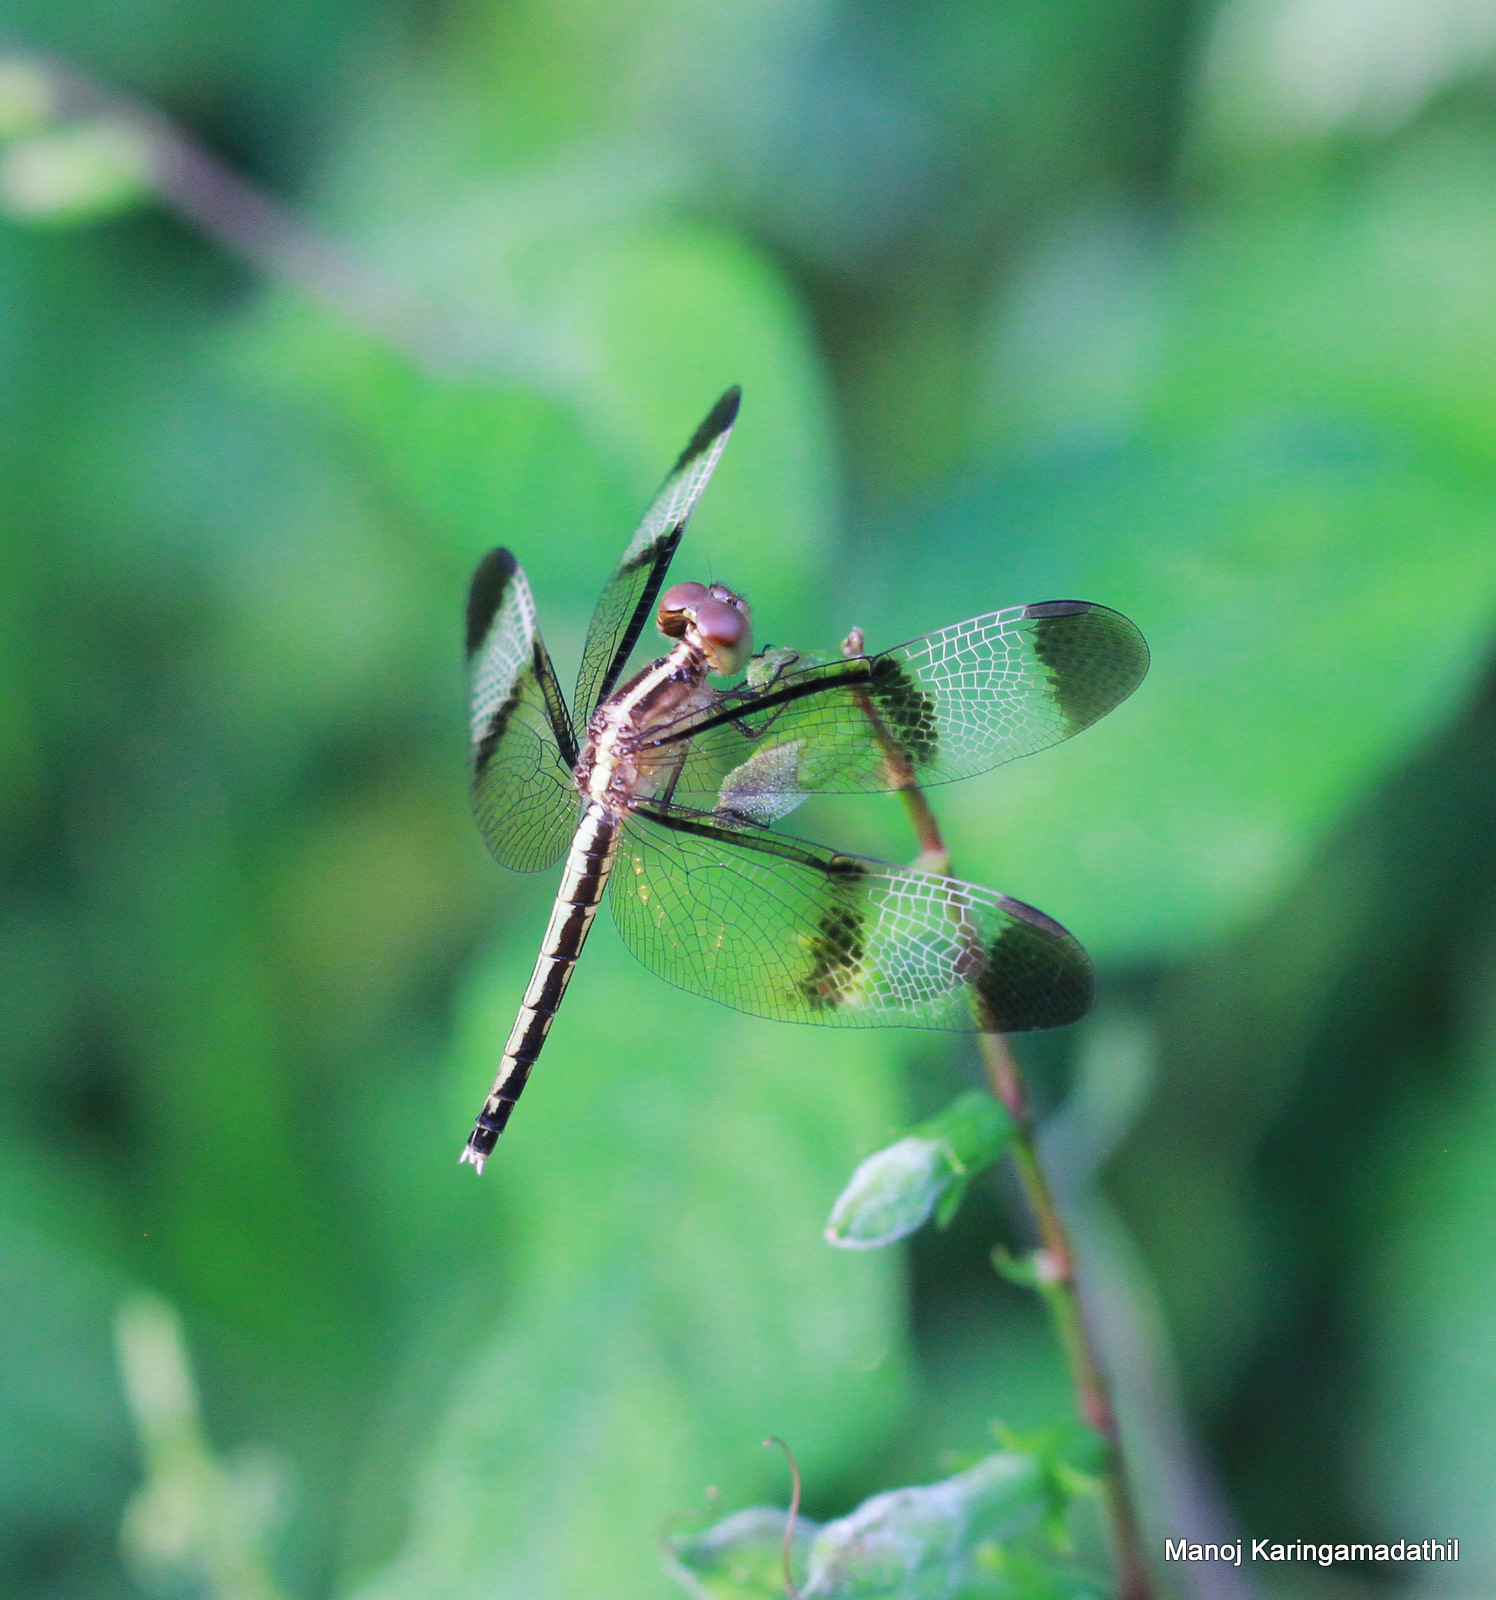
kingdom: Animalia
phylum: Arthropoda
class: Insecta
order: Odonata
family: Libellulidae
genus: Neurothemis
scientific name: Neurothemis tullia
